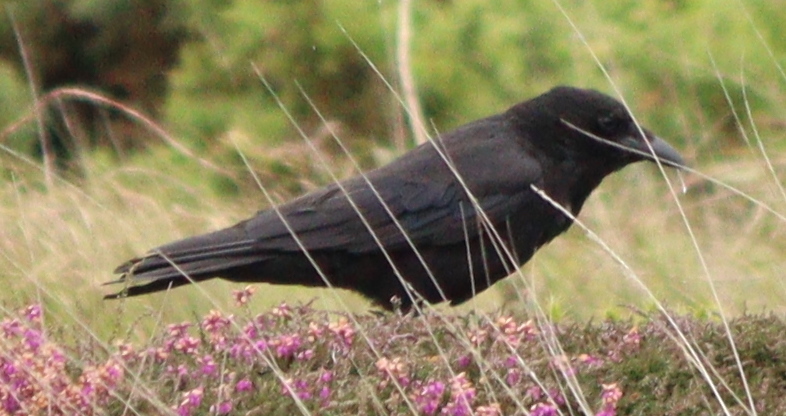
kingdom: Animalia
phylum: Chordata
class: Aves
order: Passeriformes
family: Corvidae
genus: Corvus
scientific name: Corvus corone
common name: Carrion crow
